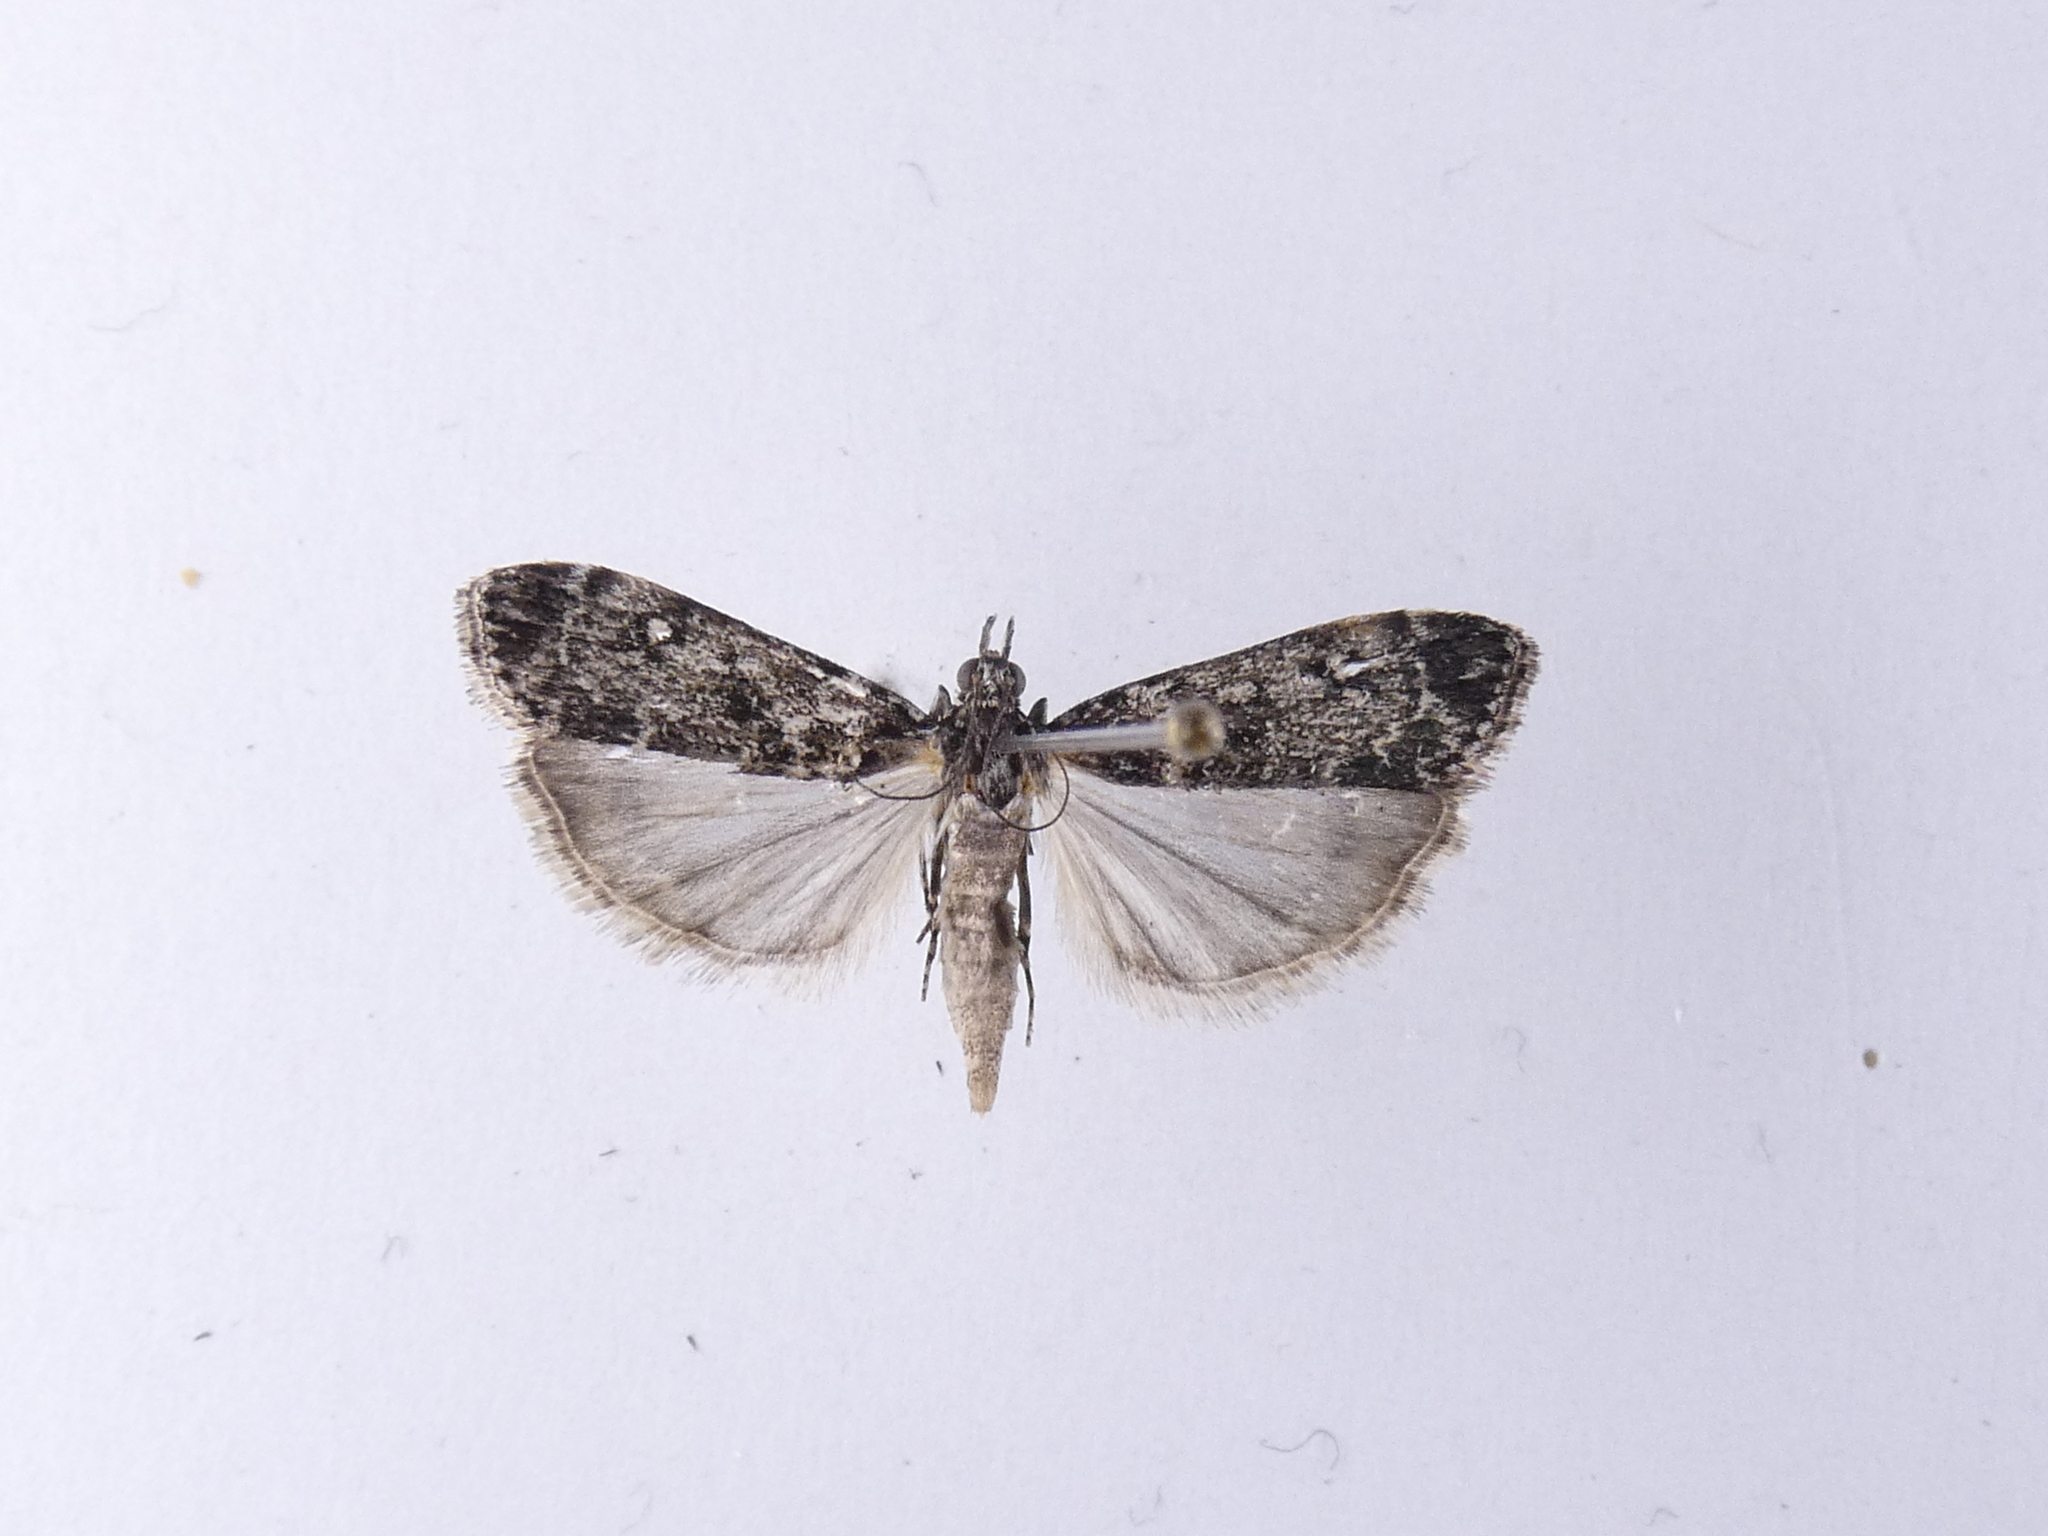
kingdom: Animalia
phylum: Arthropoda
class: Insecta
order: Lepidoptera
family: Crambidae
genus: Eudonia
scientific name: Eudonia philerga
